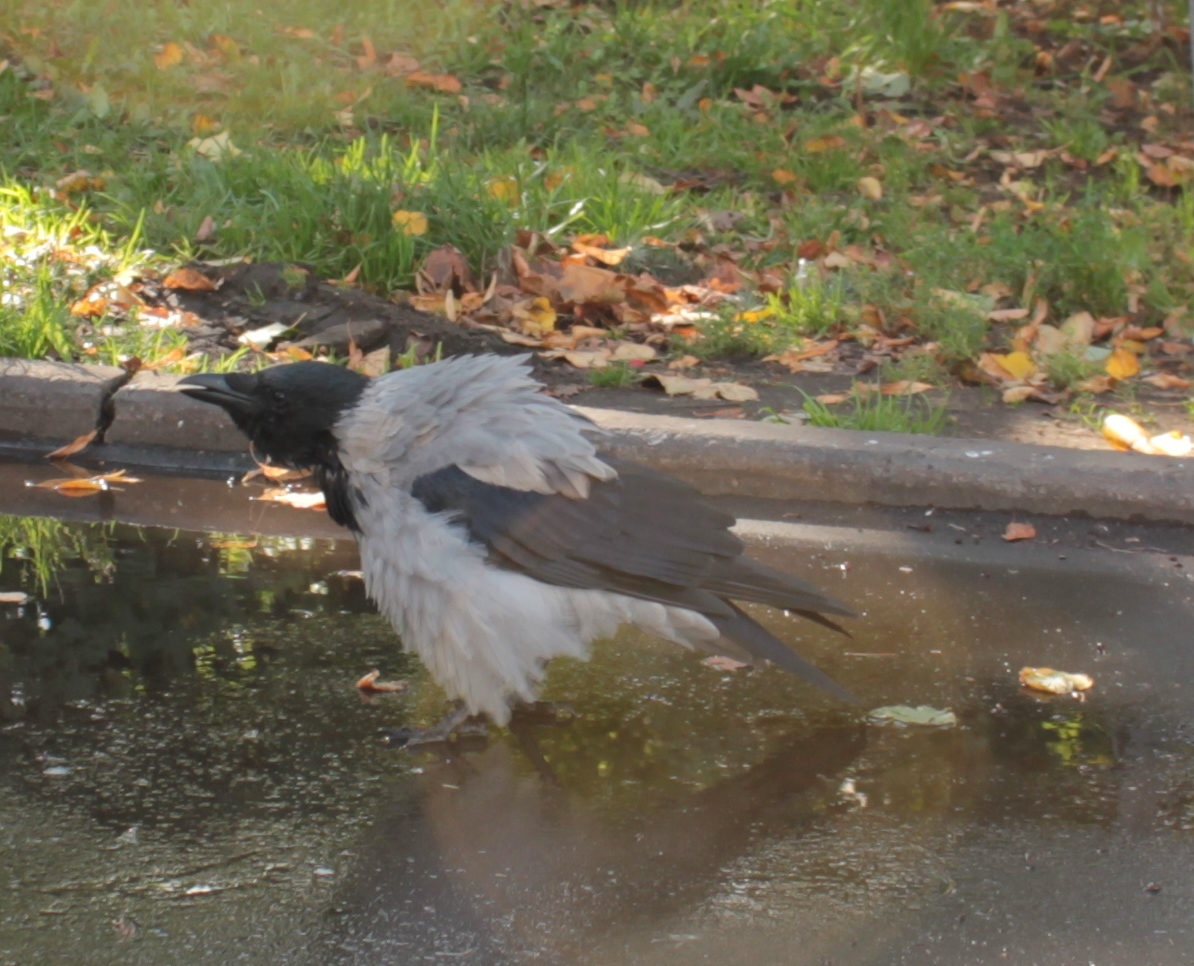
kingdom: Animalia
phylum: Chordata
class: Aves
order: Passeriformes
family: Corvidae
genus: Corvus
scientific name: Corvus cornix
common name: Hooded crow
